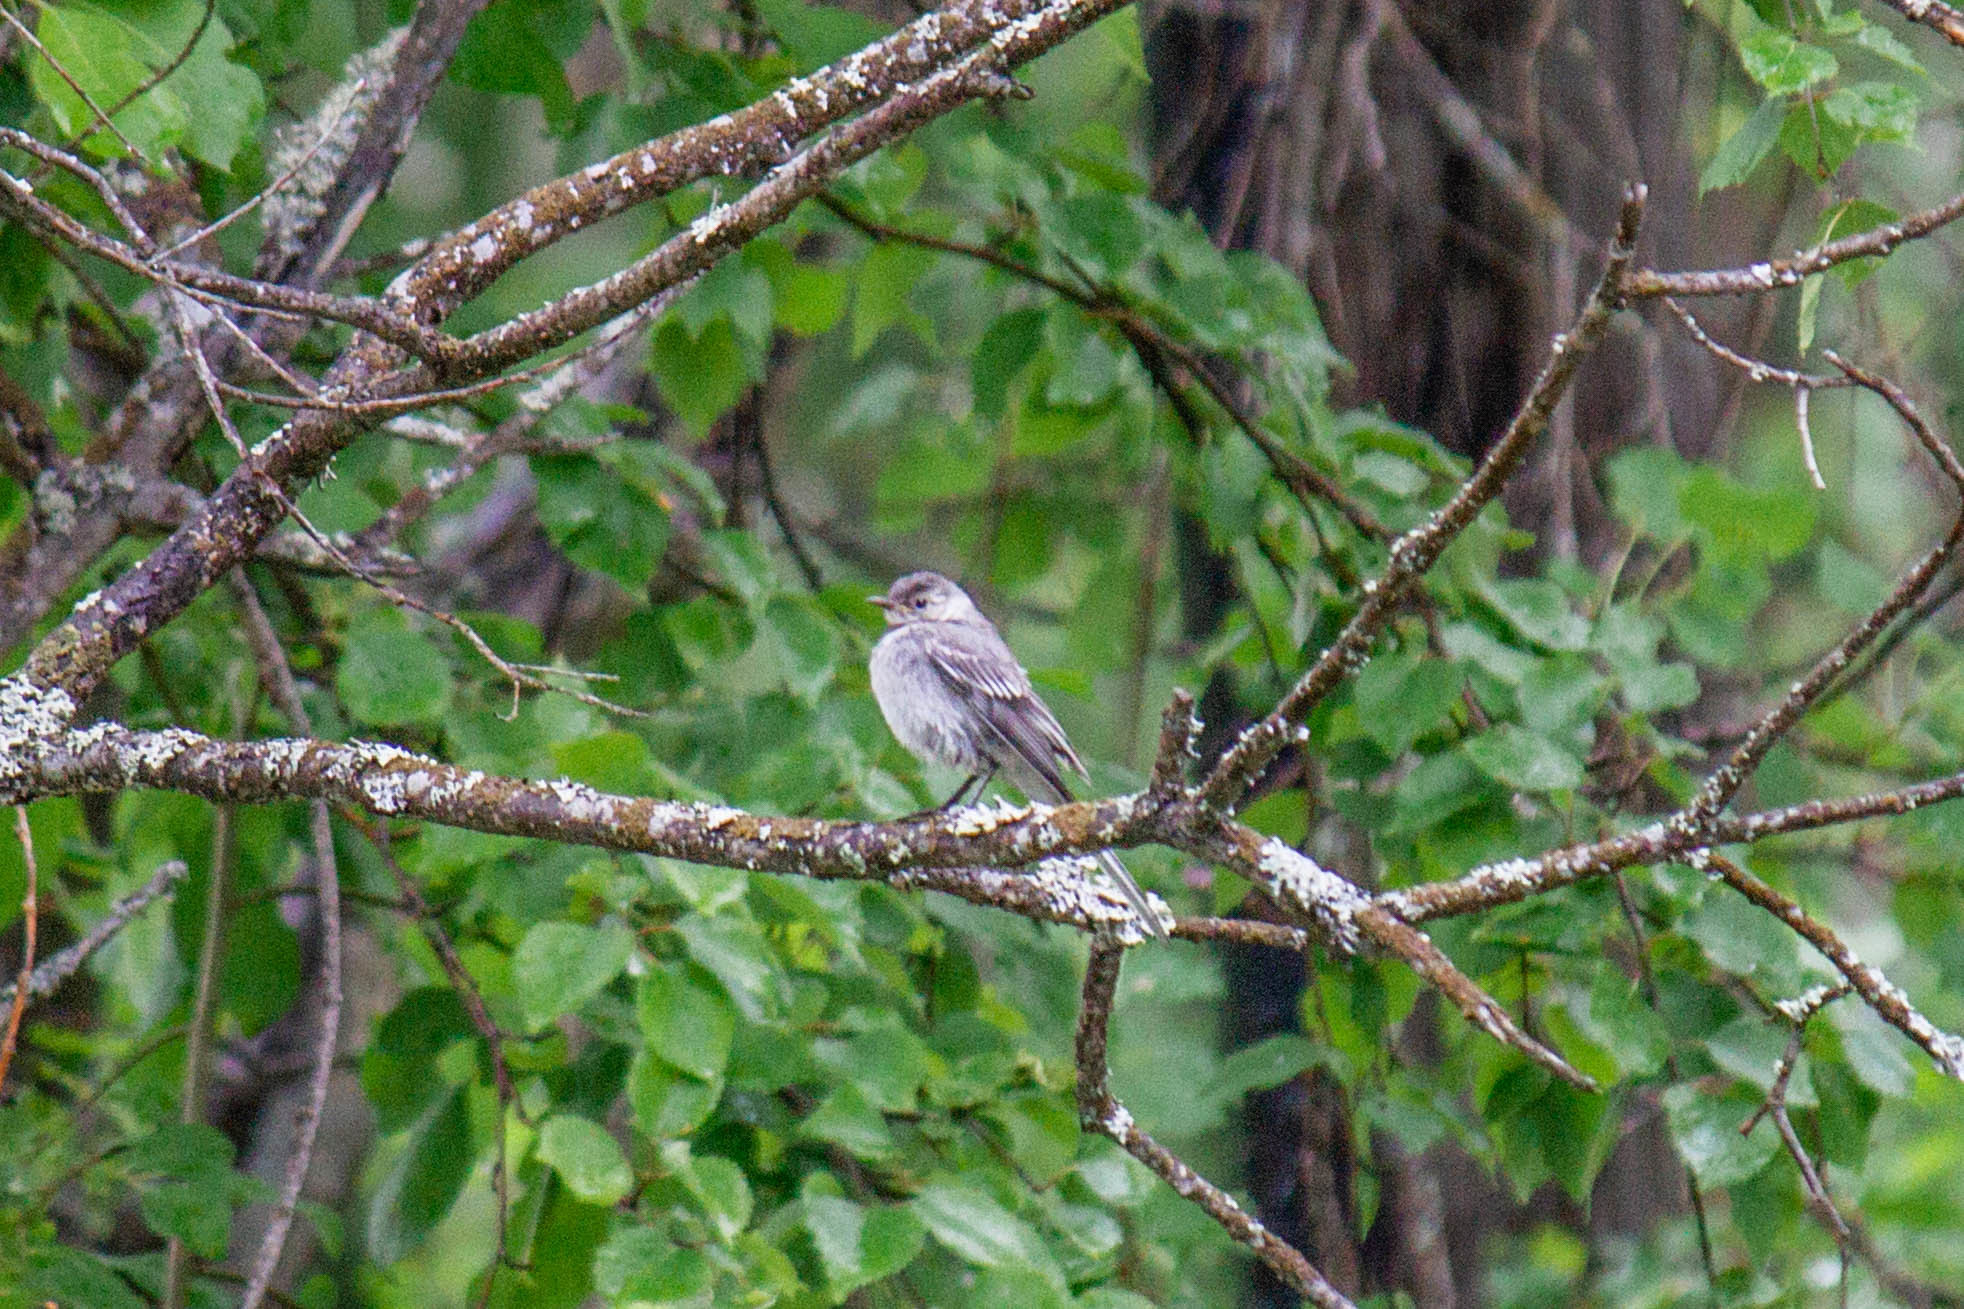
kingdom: Animalia
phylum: Chordata
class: Aves
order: Passeriformes
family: Motacillidae
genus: Motacilla
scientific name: Motacilla alba
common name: White wagtail
